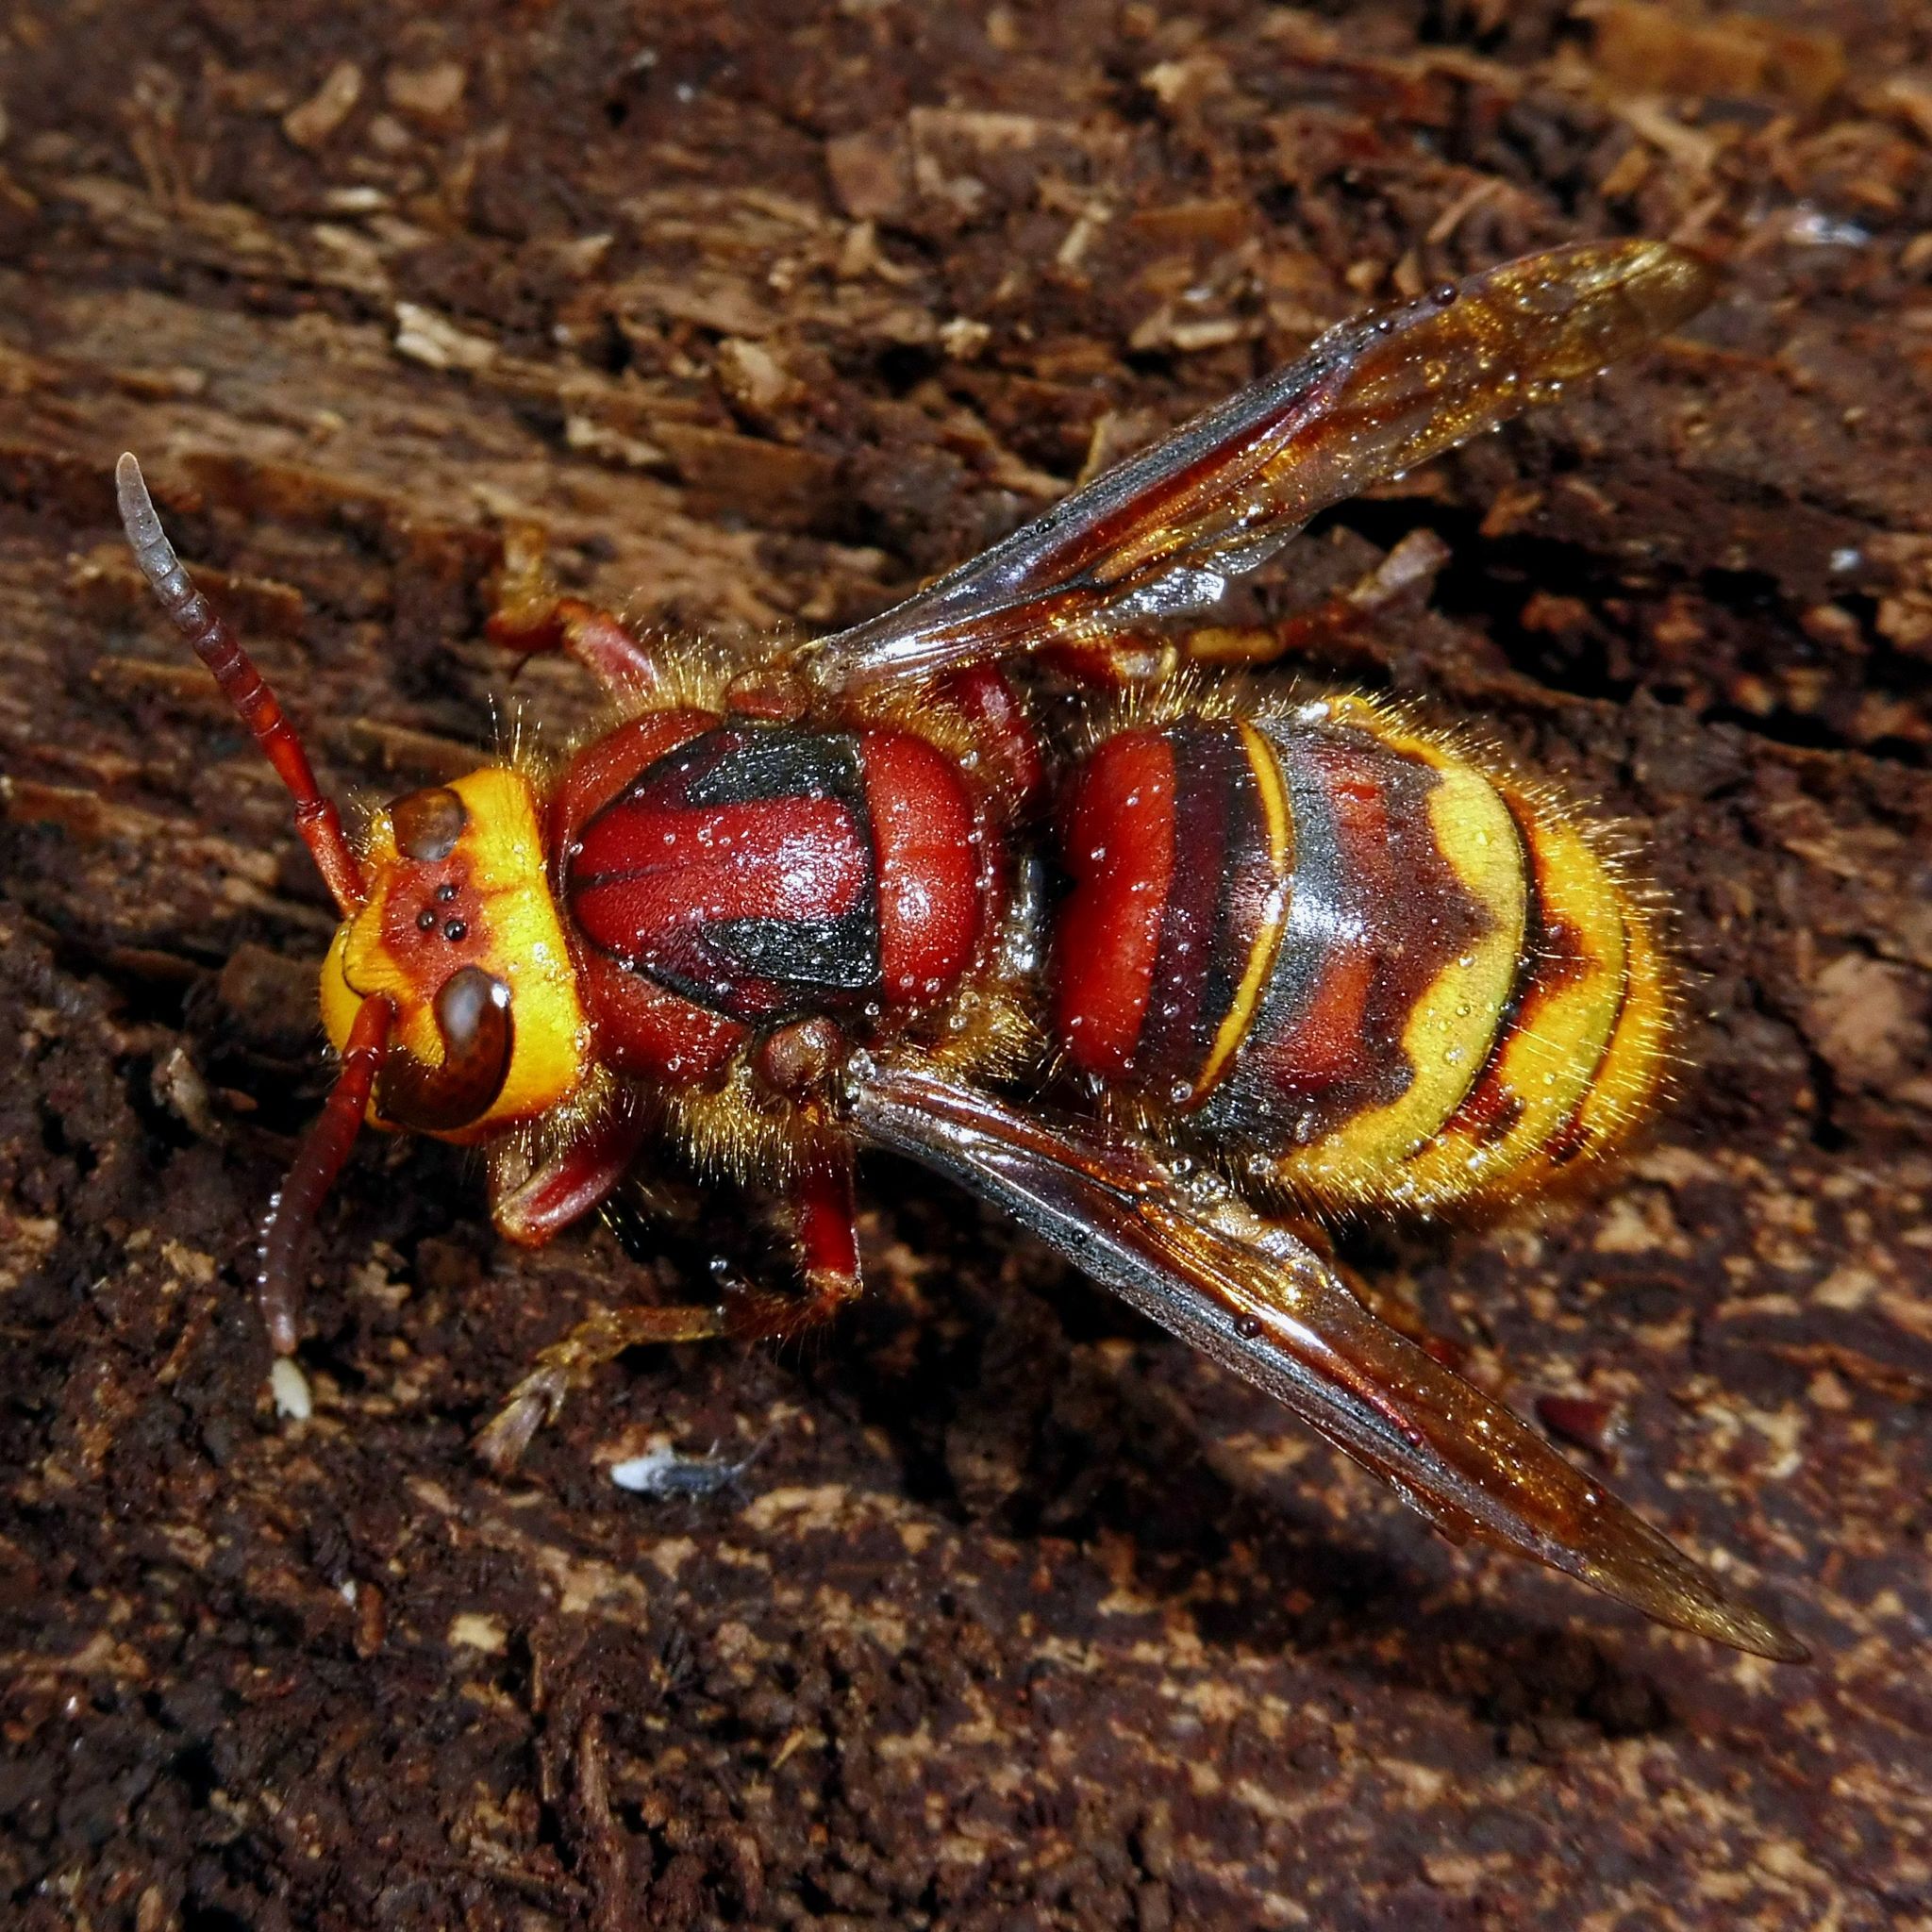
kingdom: Animalia
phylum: Arthropoda
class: Insecta
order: Hymenoptera
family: Vespidae
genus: Vespa
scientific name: Vespa crabro
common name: Hornet
